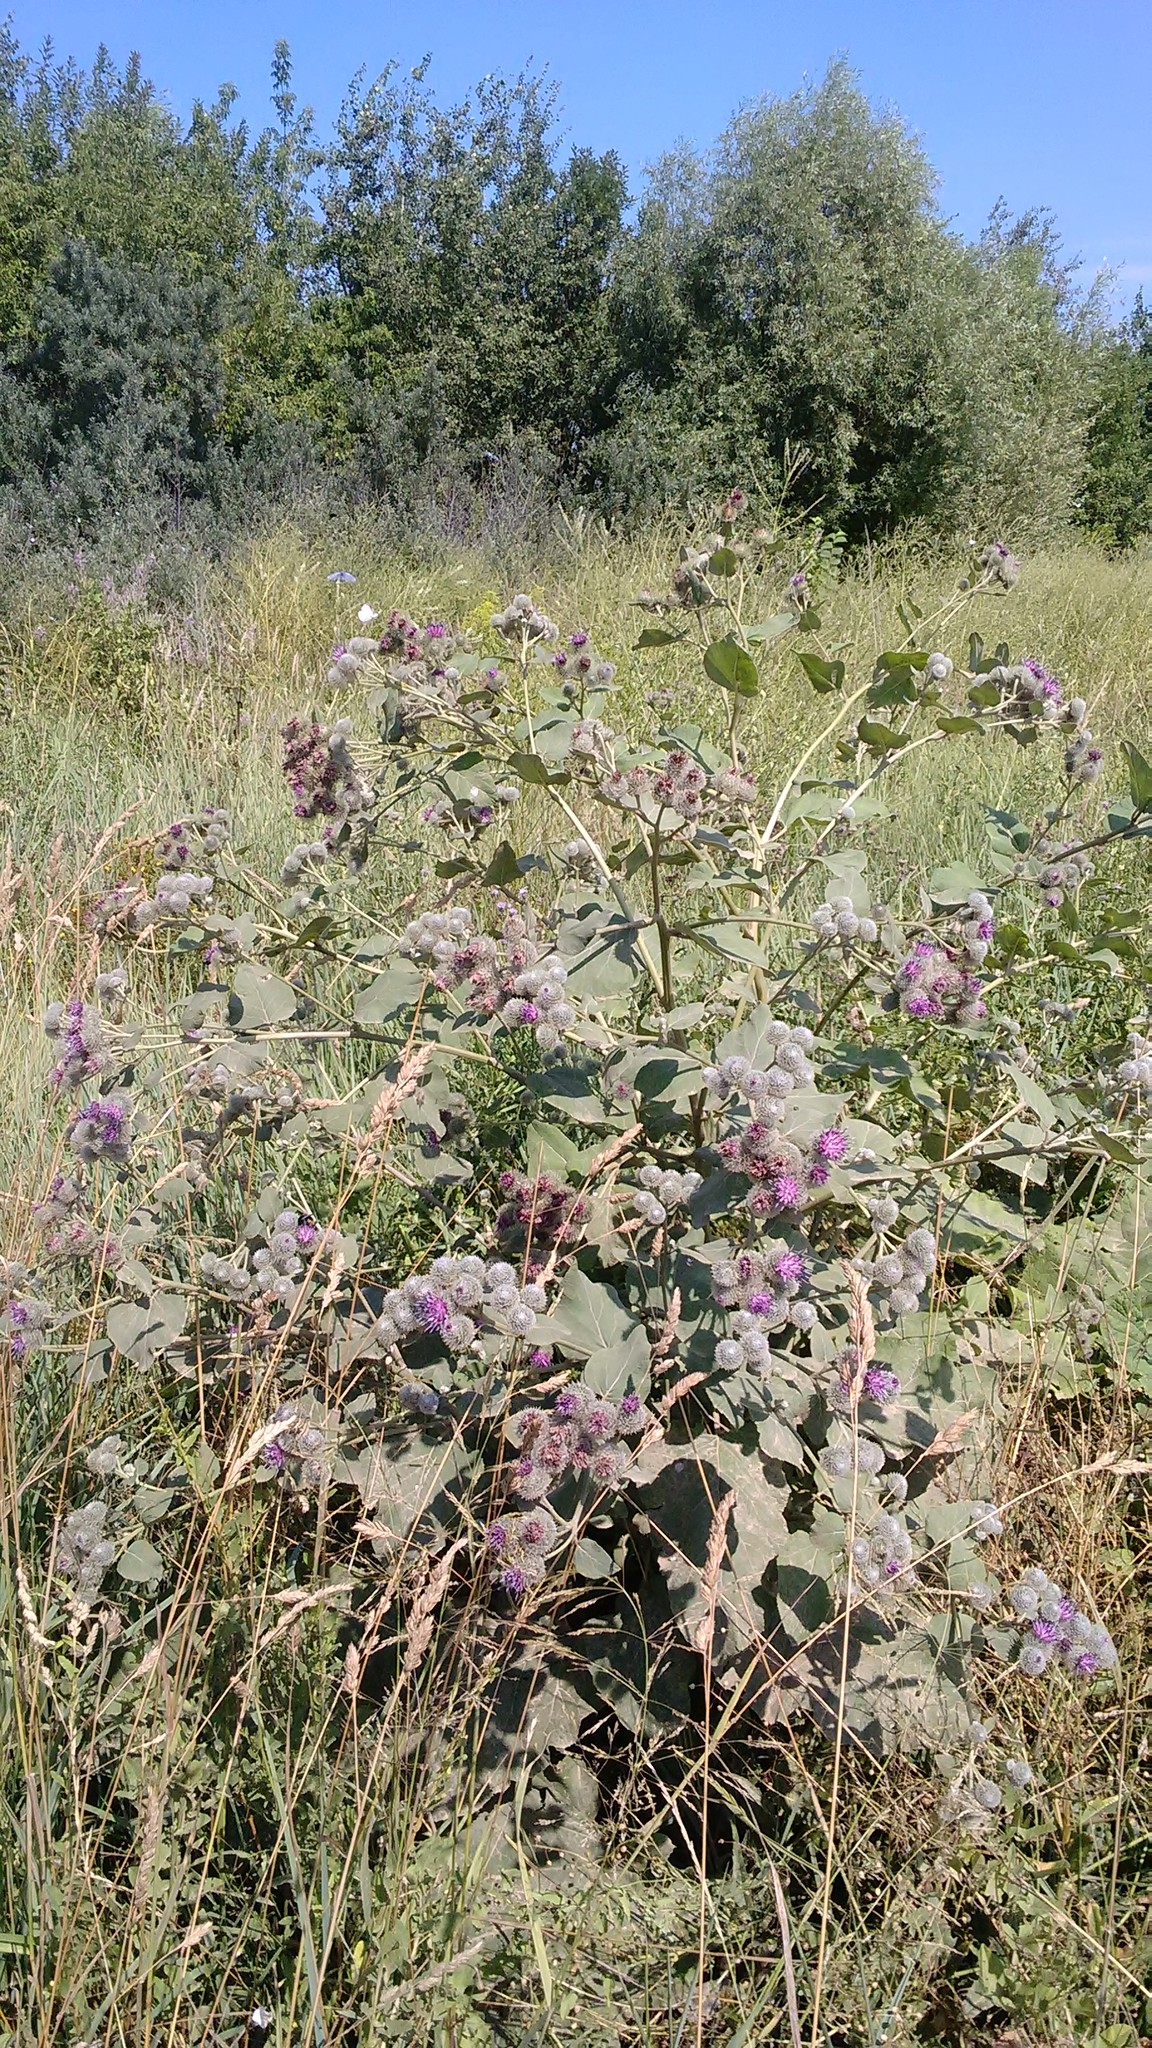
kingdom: Plantae
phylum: Tracheophyta
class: Magnoliopsida
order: Asterales
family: Asteraceae
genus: Arctium
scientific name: Arctium tomentosum
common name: Woolly burdock
